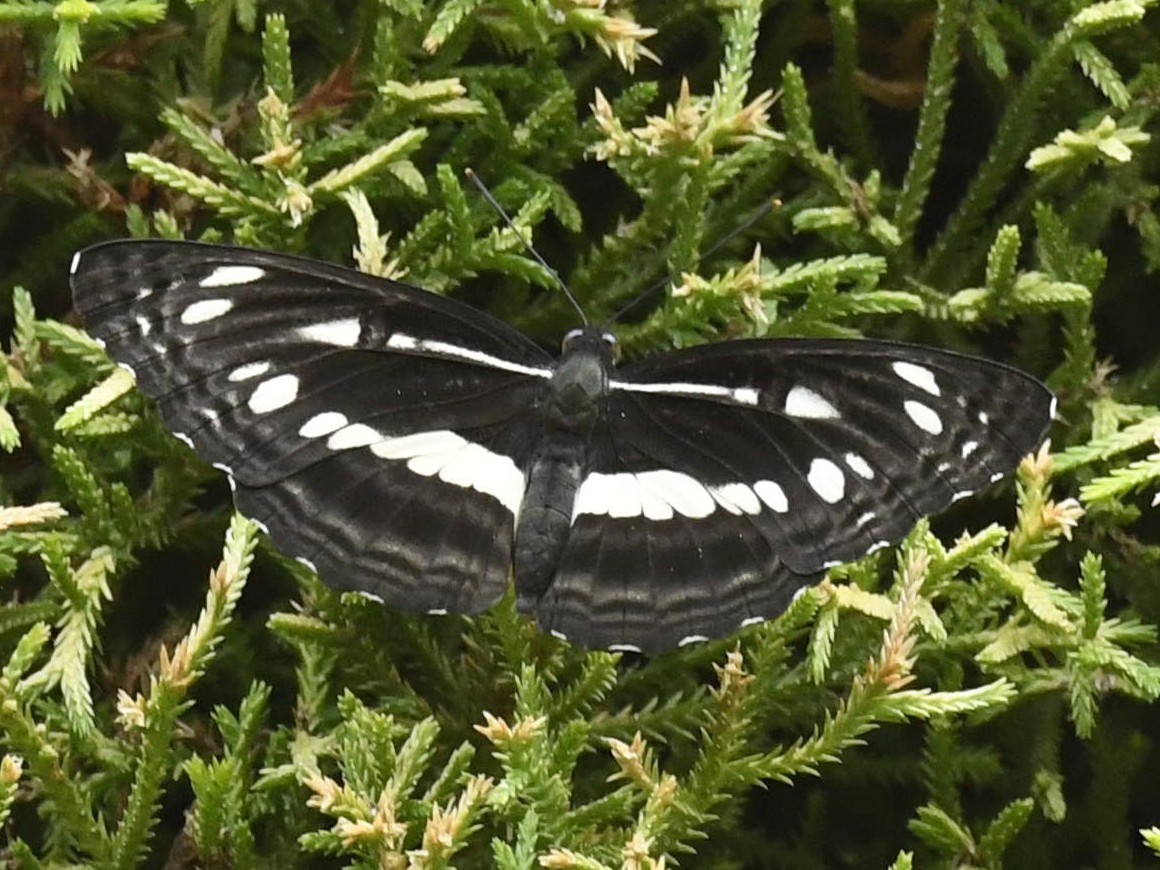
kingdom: Animalia
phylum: Arthropoda
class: Insecta
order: Lepidoptera
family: Nymphalidae
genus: Neptis
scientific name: Neptis jumbah
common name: Chestnut-streaked sailer
